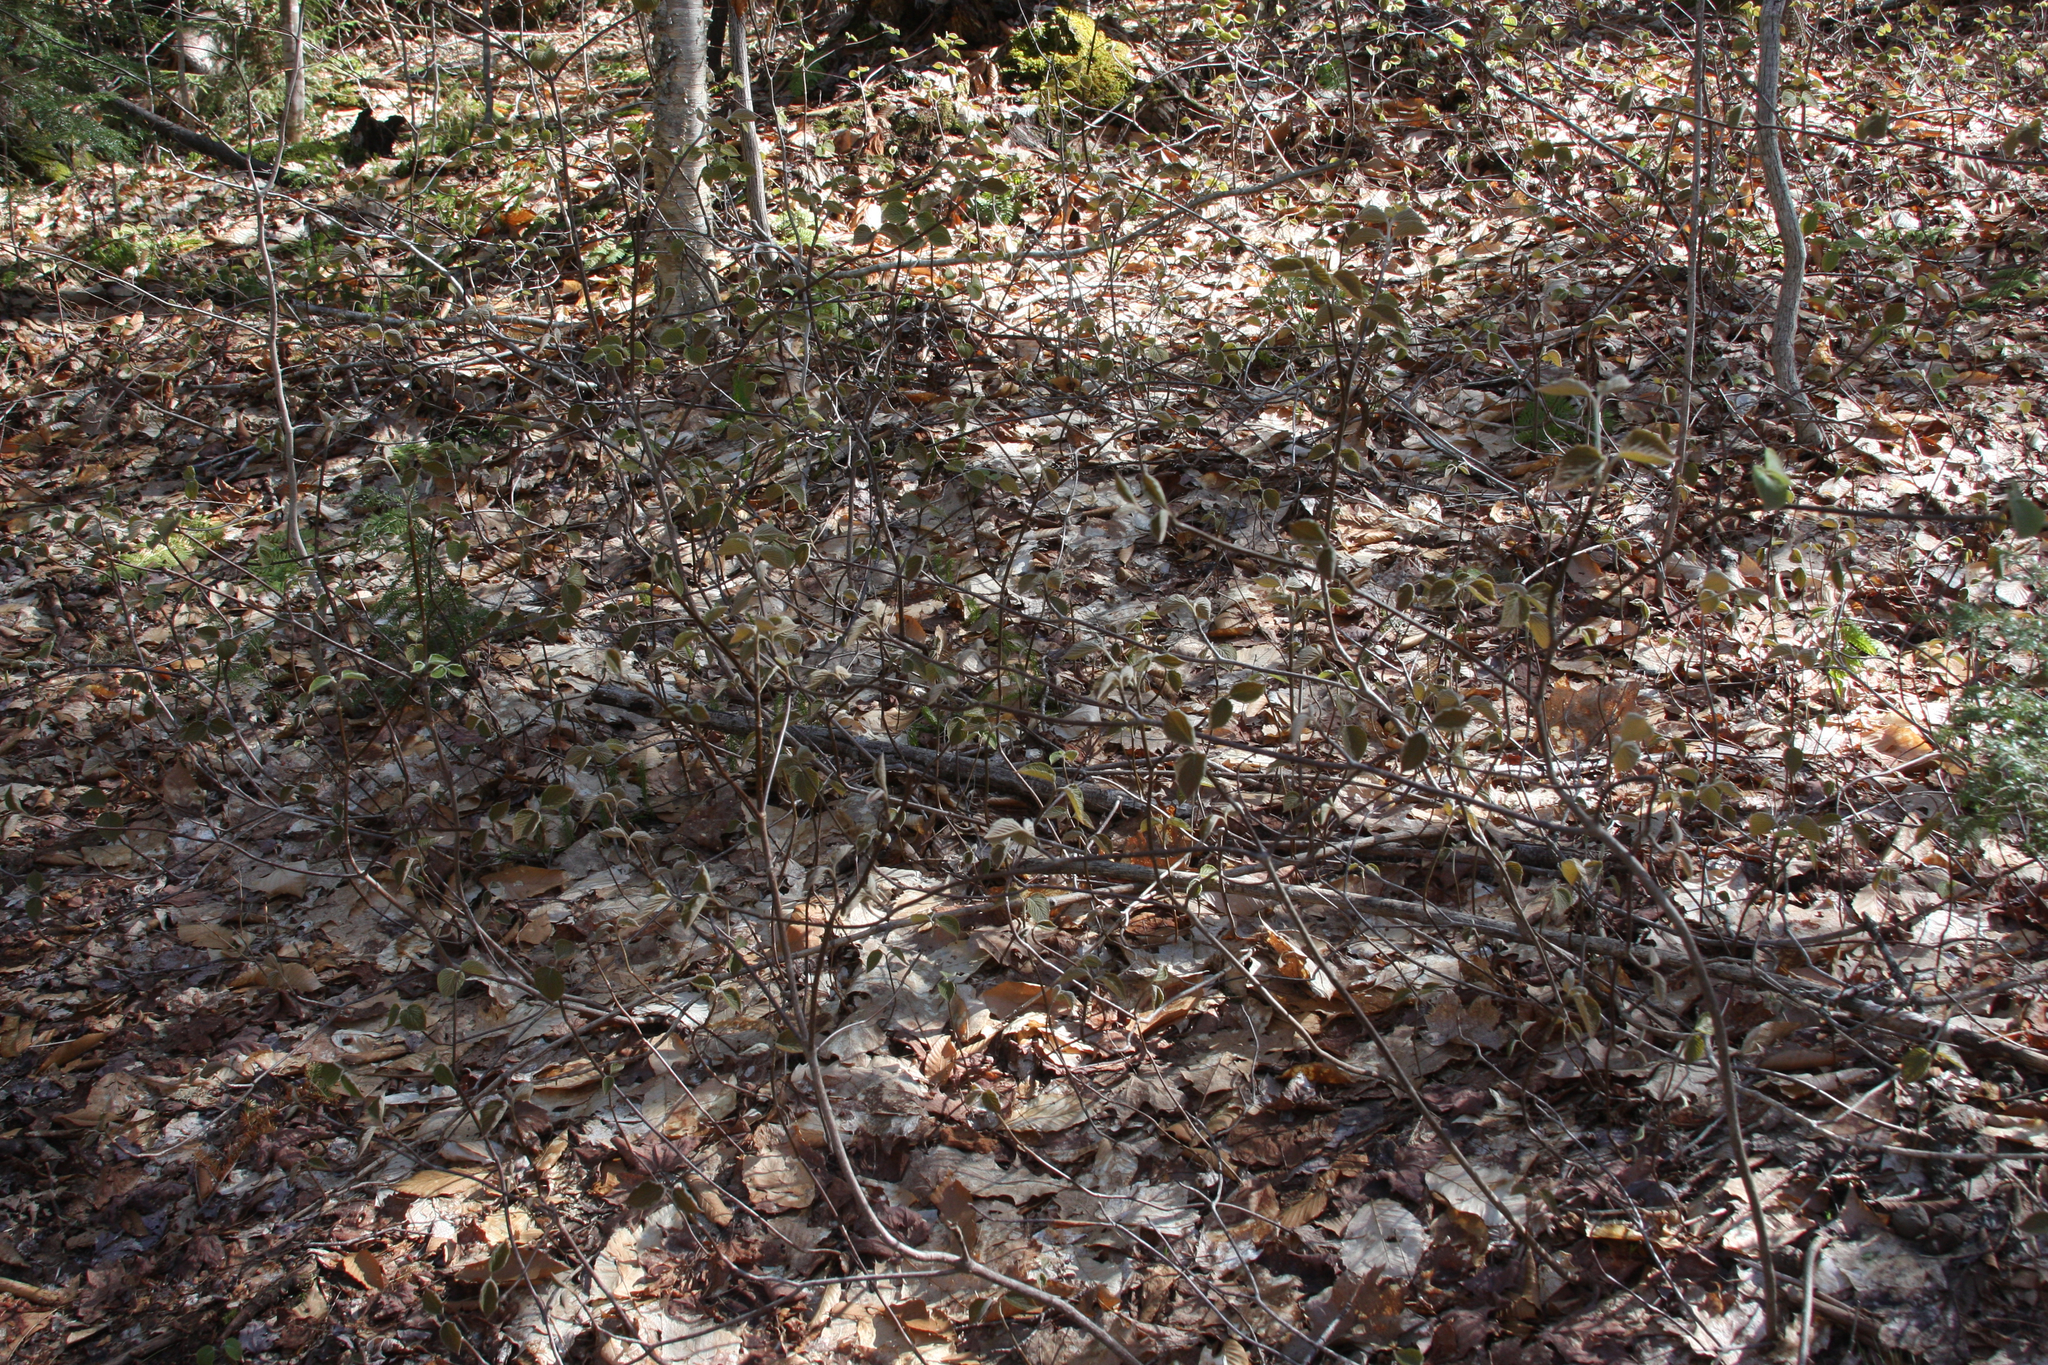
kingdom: Plantae
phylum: Tracheophyta
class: Magnoliopsida
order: Dipsacales
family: Viburnaceae
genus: Viburnum
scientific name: Viburnum lantanoides
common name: Hobblebush
